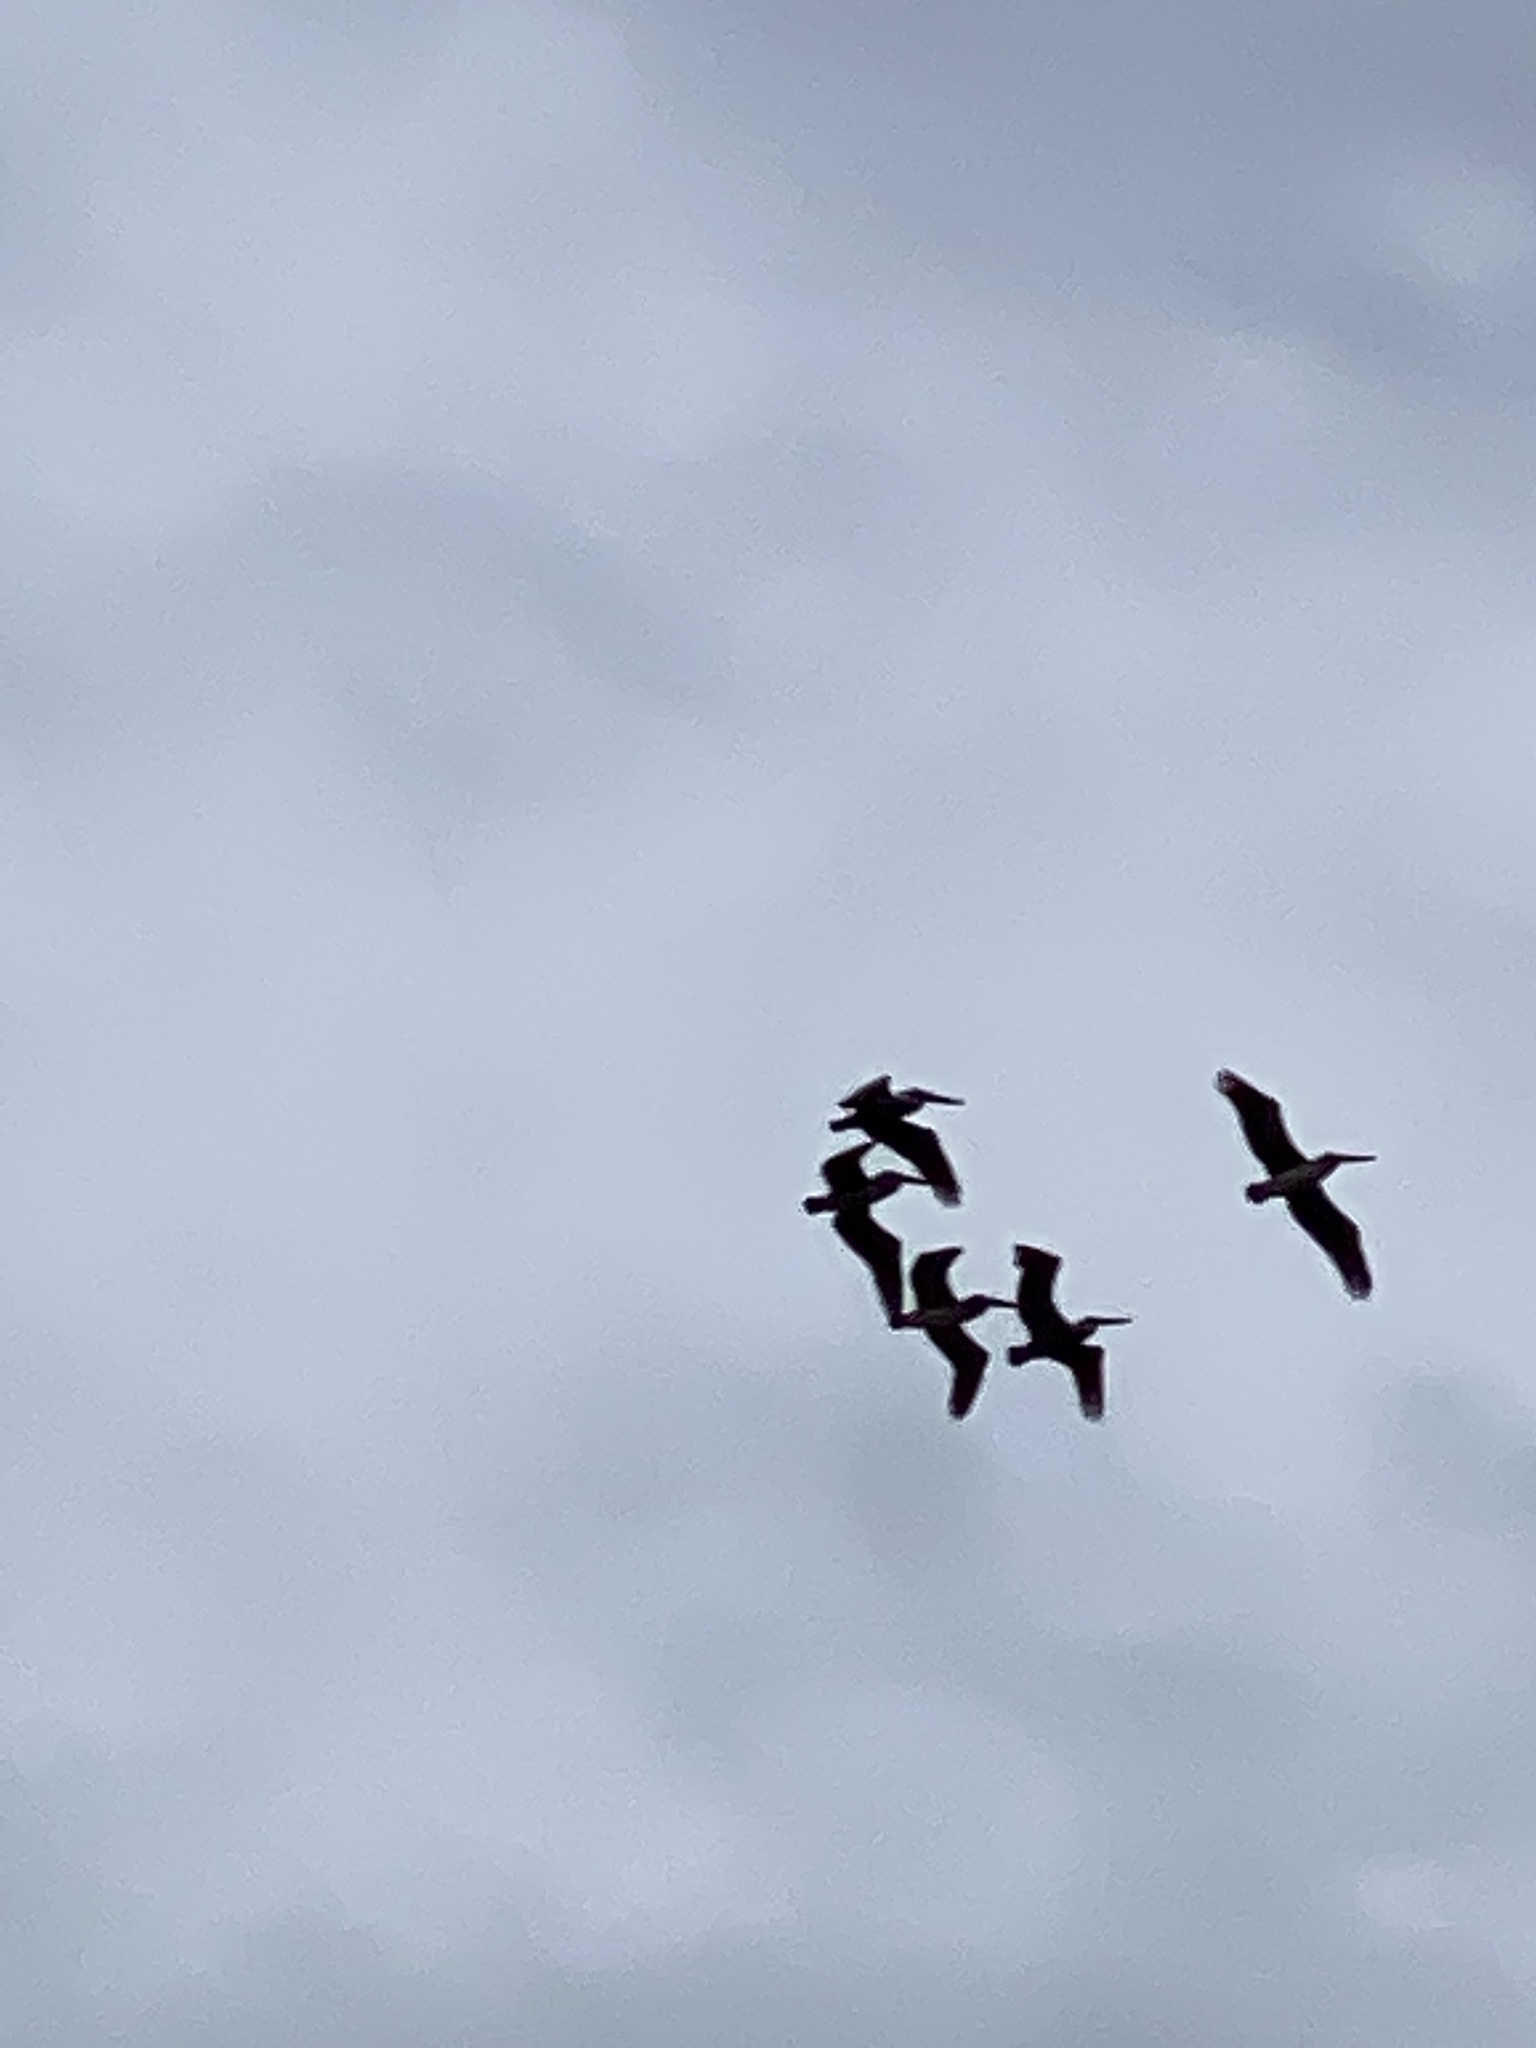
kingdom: Animalia
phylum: Chordata
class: Aves
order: Pelecaniformes
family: Pelecanidae
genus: Pelecanus
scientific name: Pelecanus occidentalis
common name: Brown pelican
